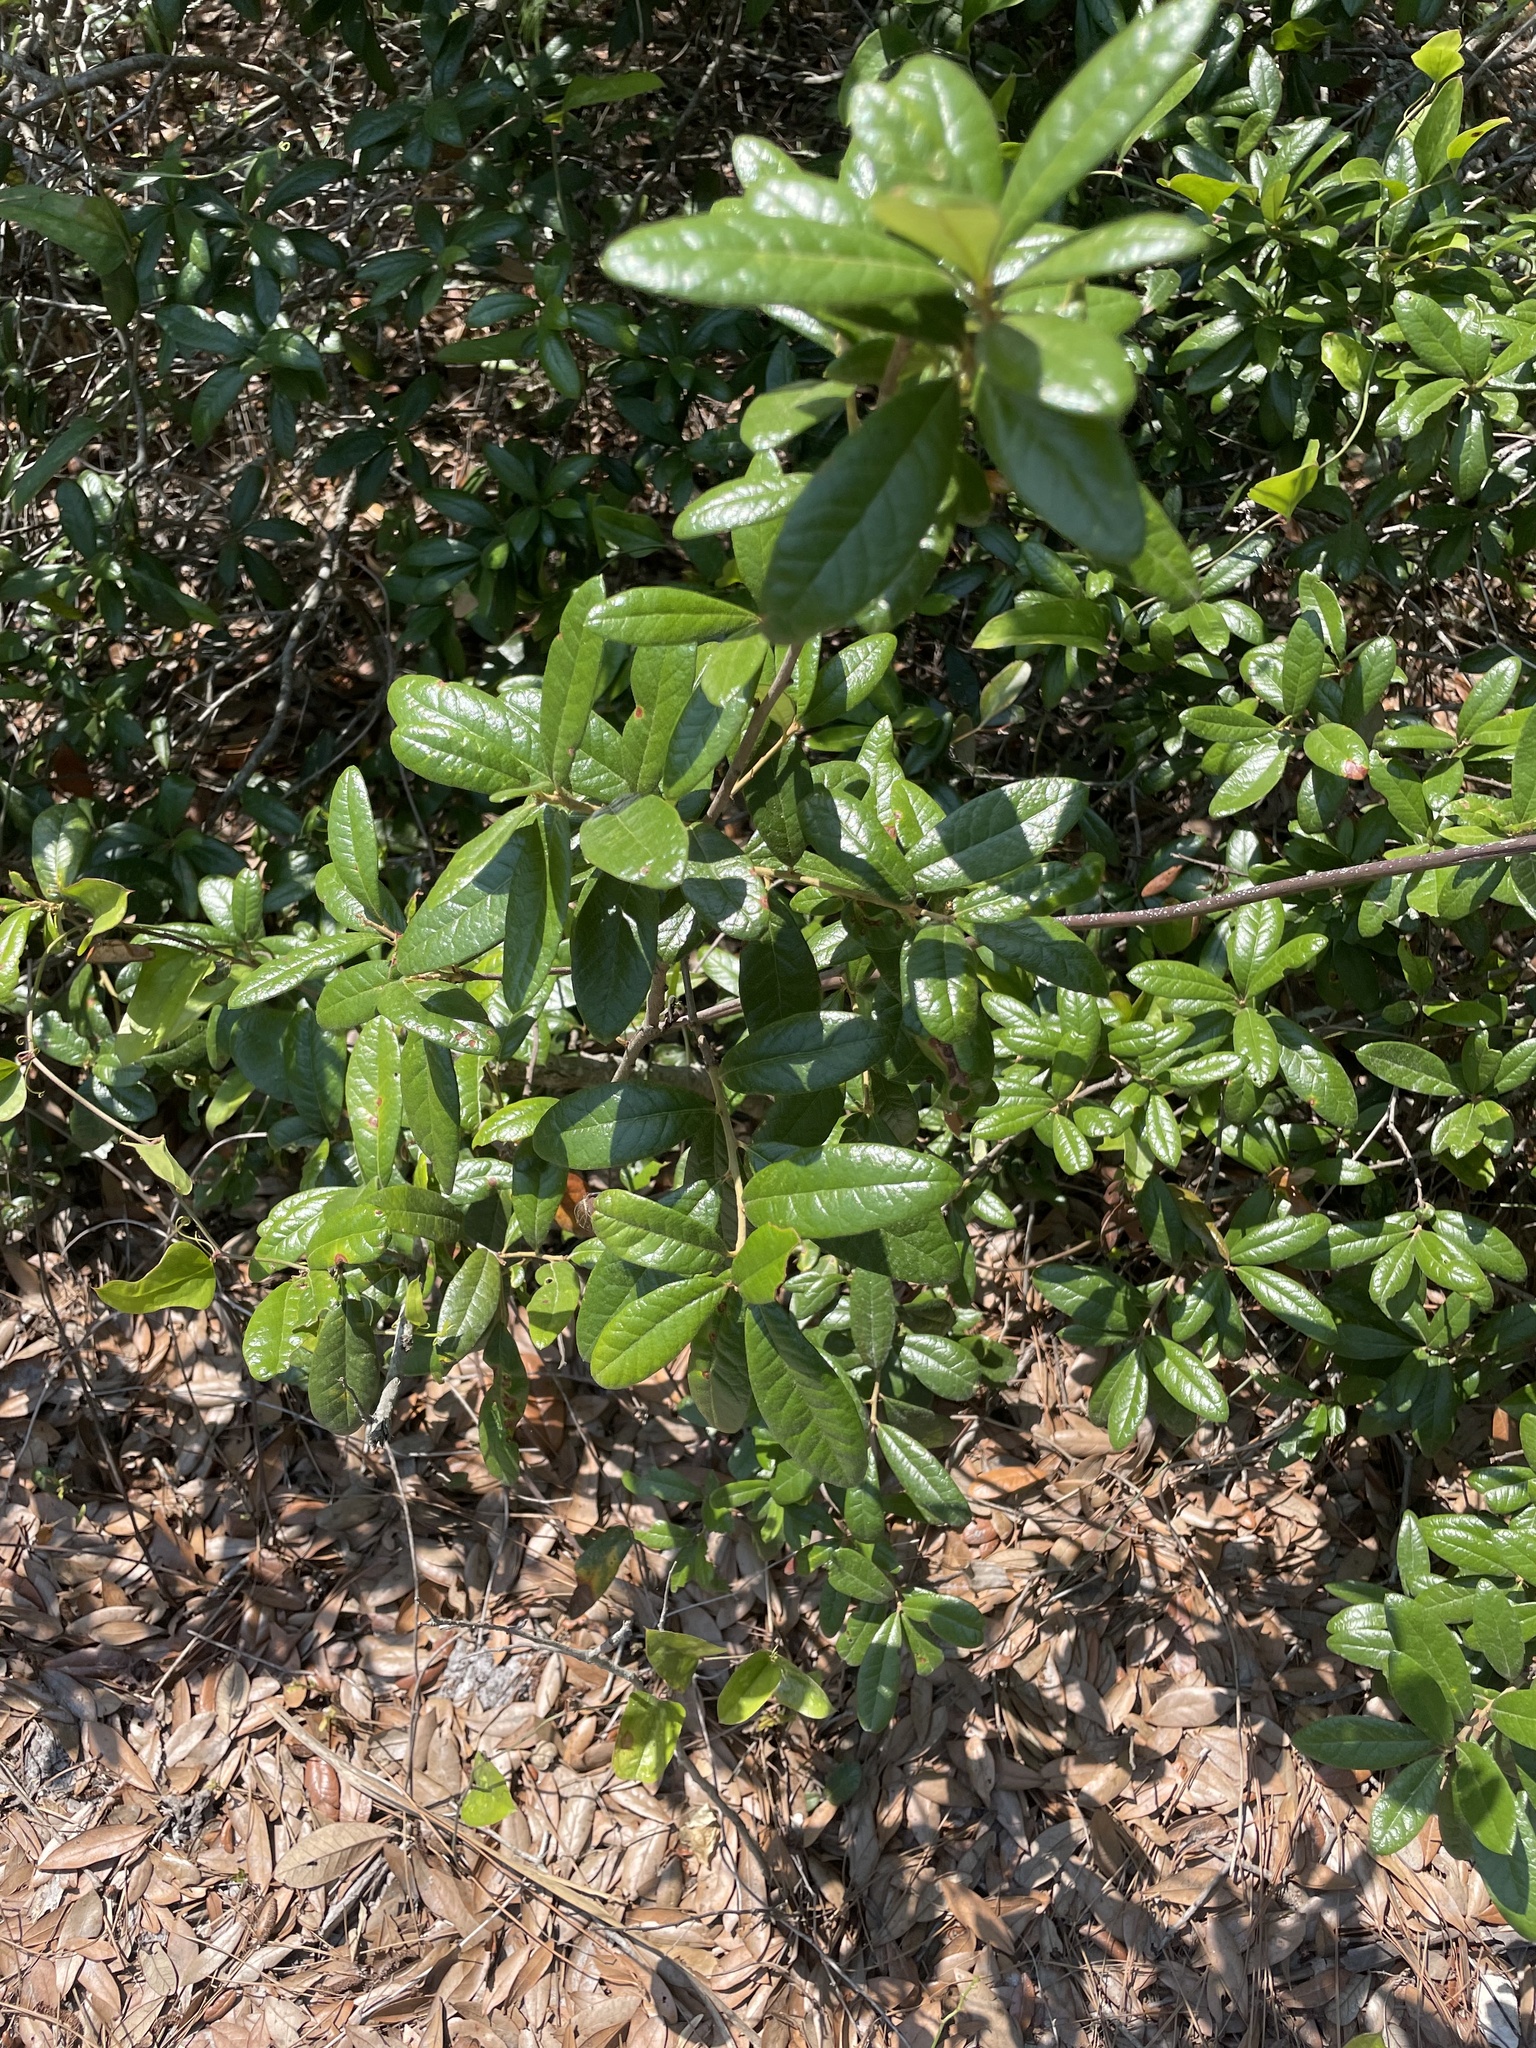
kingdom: Plantae
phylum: Tracheophyta
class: Magnoliopsida
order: Fagales
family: Fagaceae
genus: Quercus
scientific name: Quercus geminata
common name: Sand live oak
